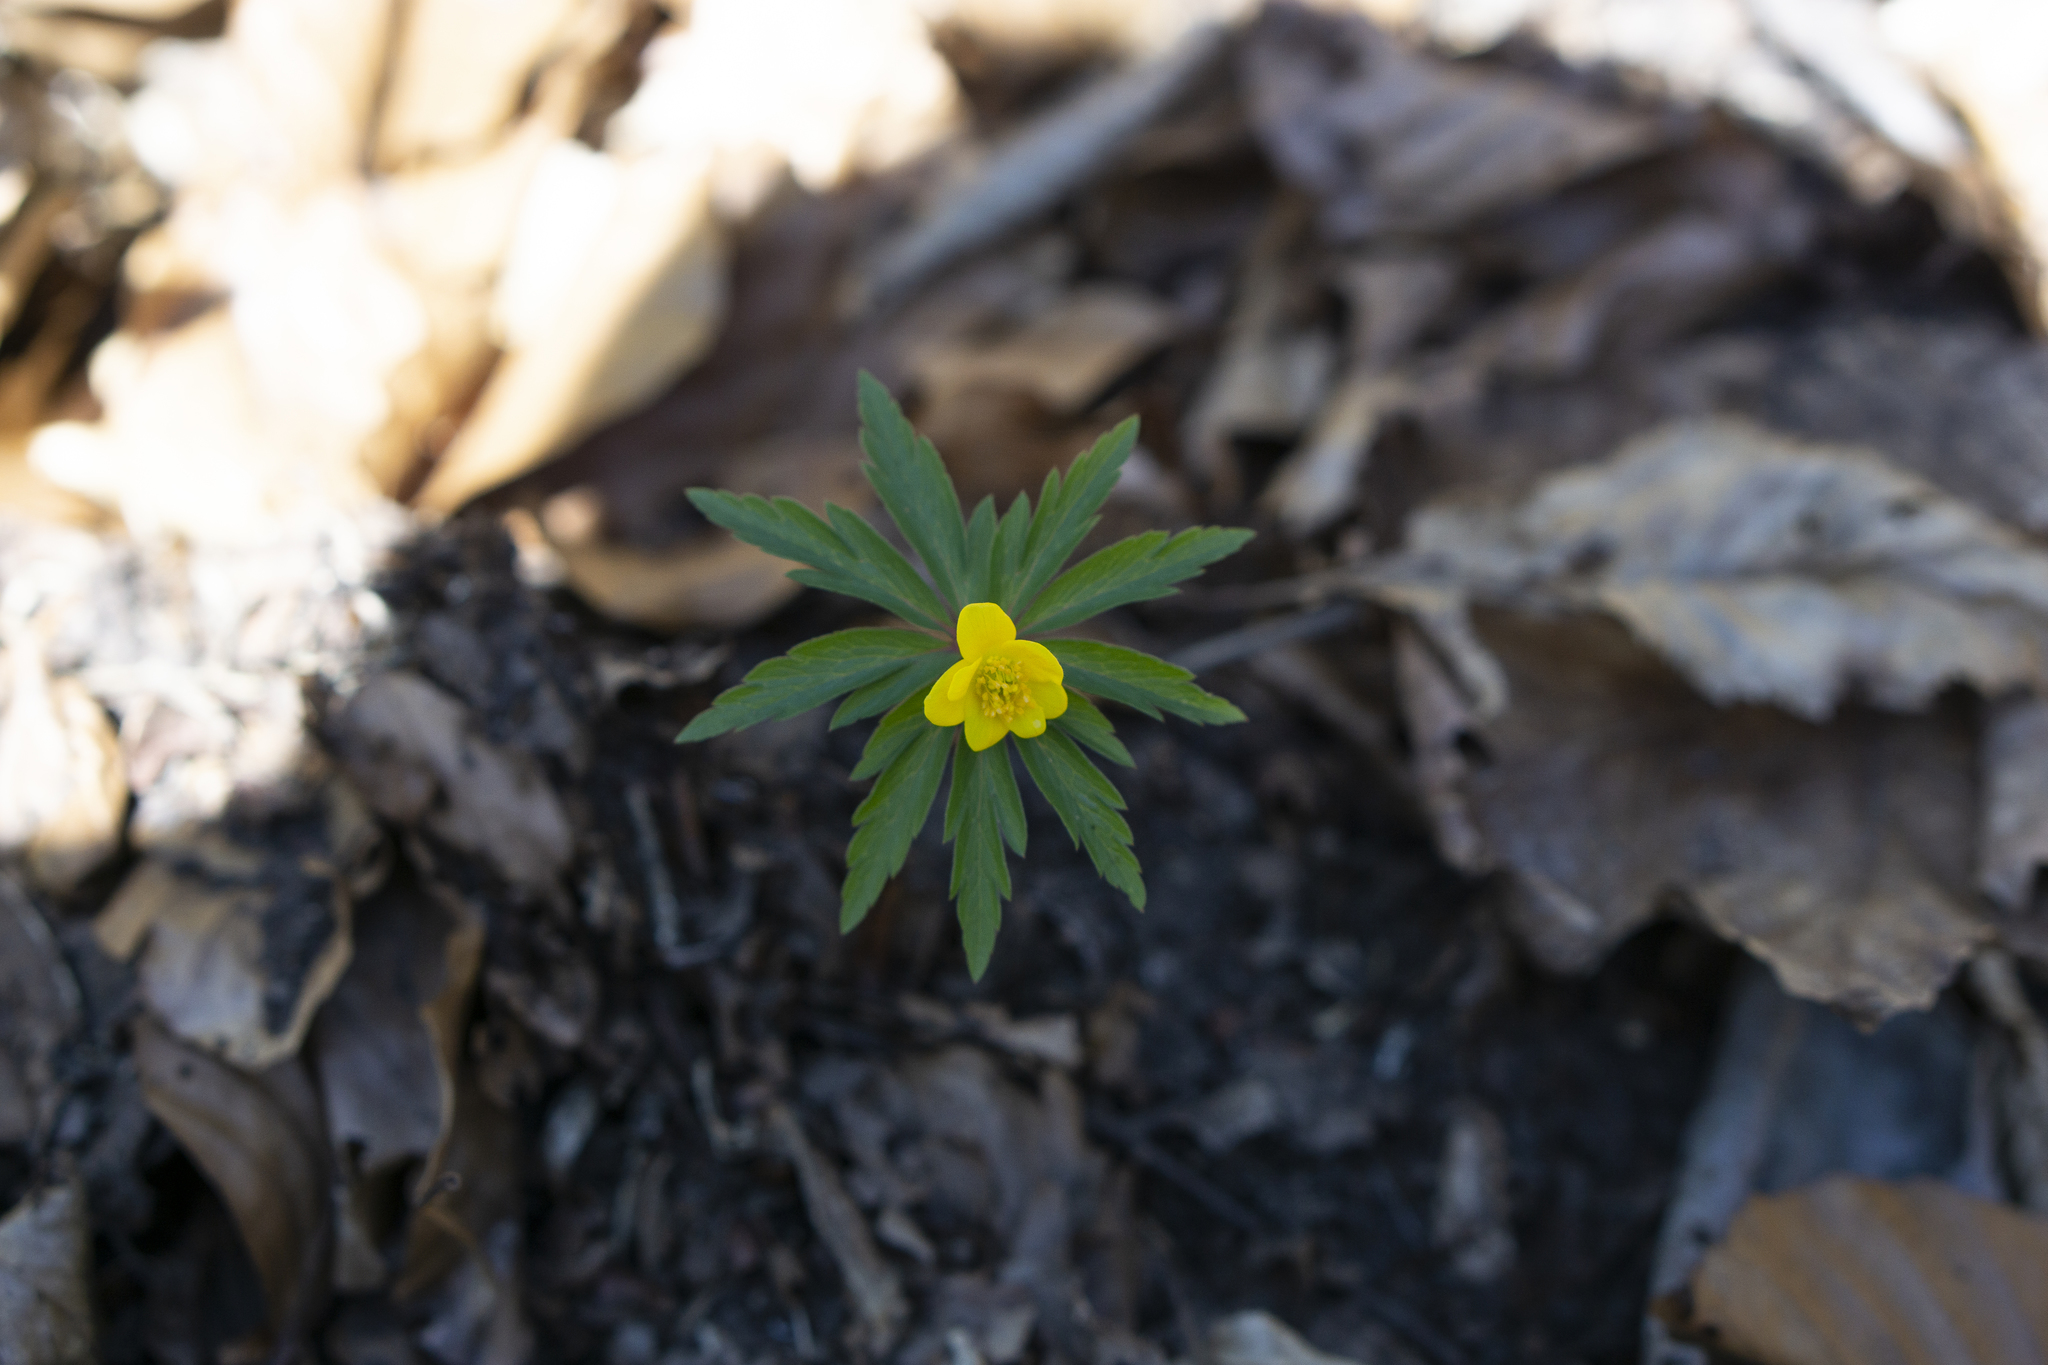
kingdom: Plantae
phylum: Tracheophyta
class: Magnoliopsida
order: Ranunculales
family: Ranunculaceae
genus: Anemone
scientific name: Anemone ranunculoides
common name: Yellow anemone
